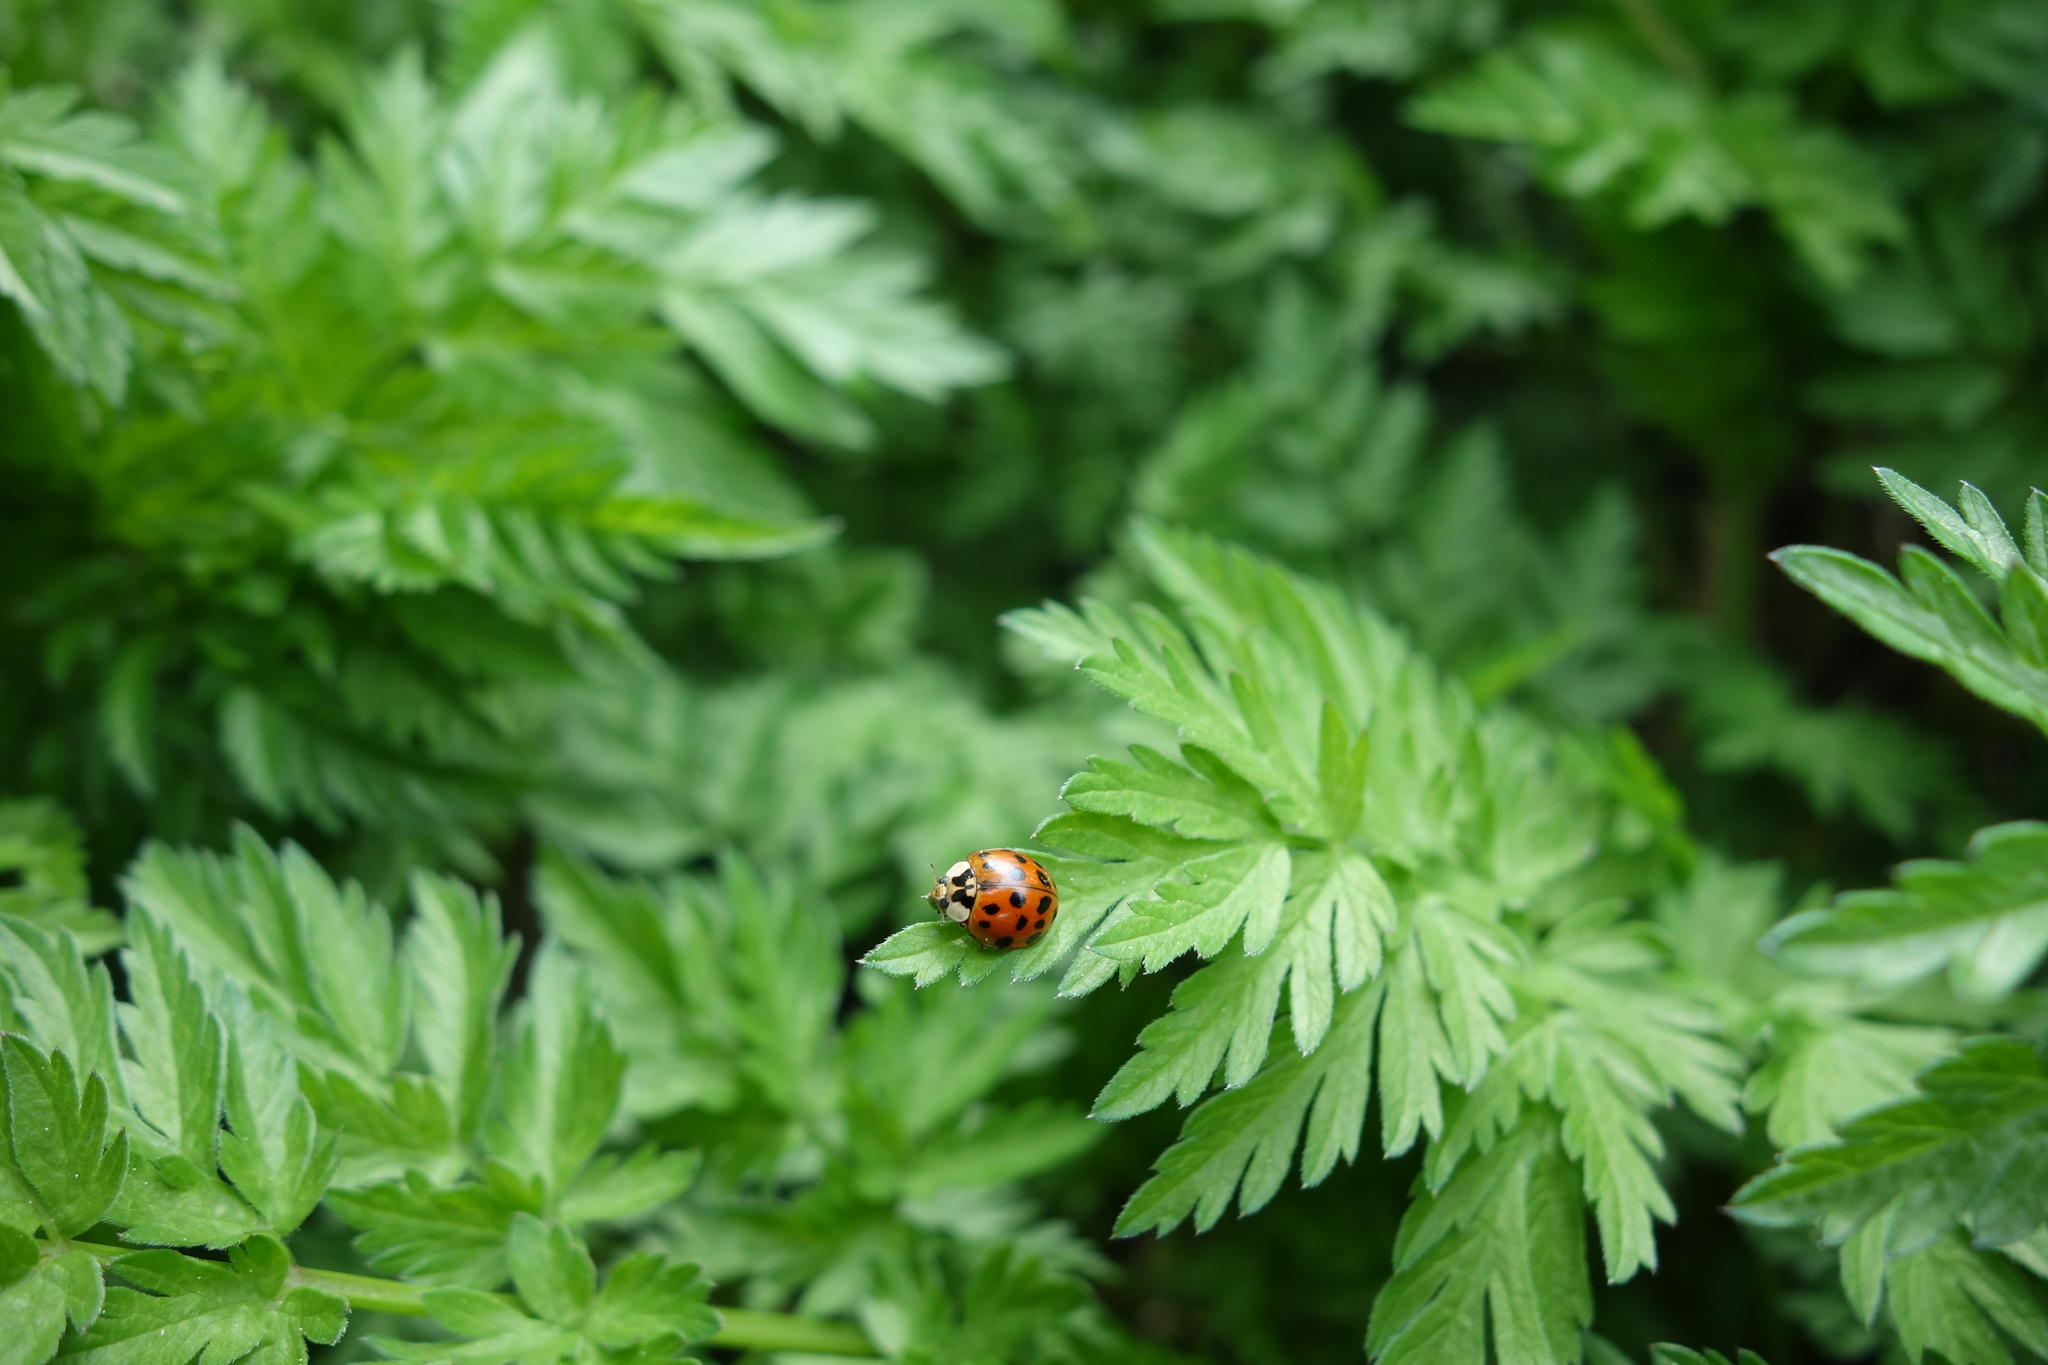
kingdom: Animalia
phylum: Arthropoda
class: Insecta
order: Coleoptera
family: Coccinellidae
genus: Harmonia
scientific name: Harmonia axyridis
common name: Harlequin ladybird
